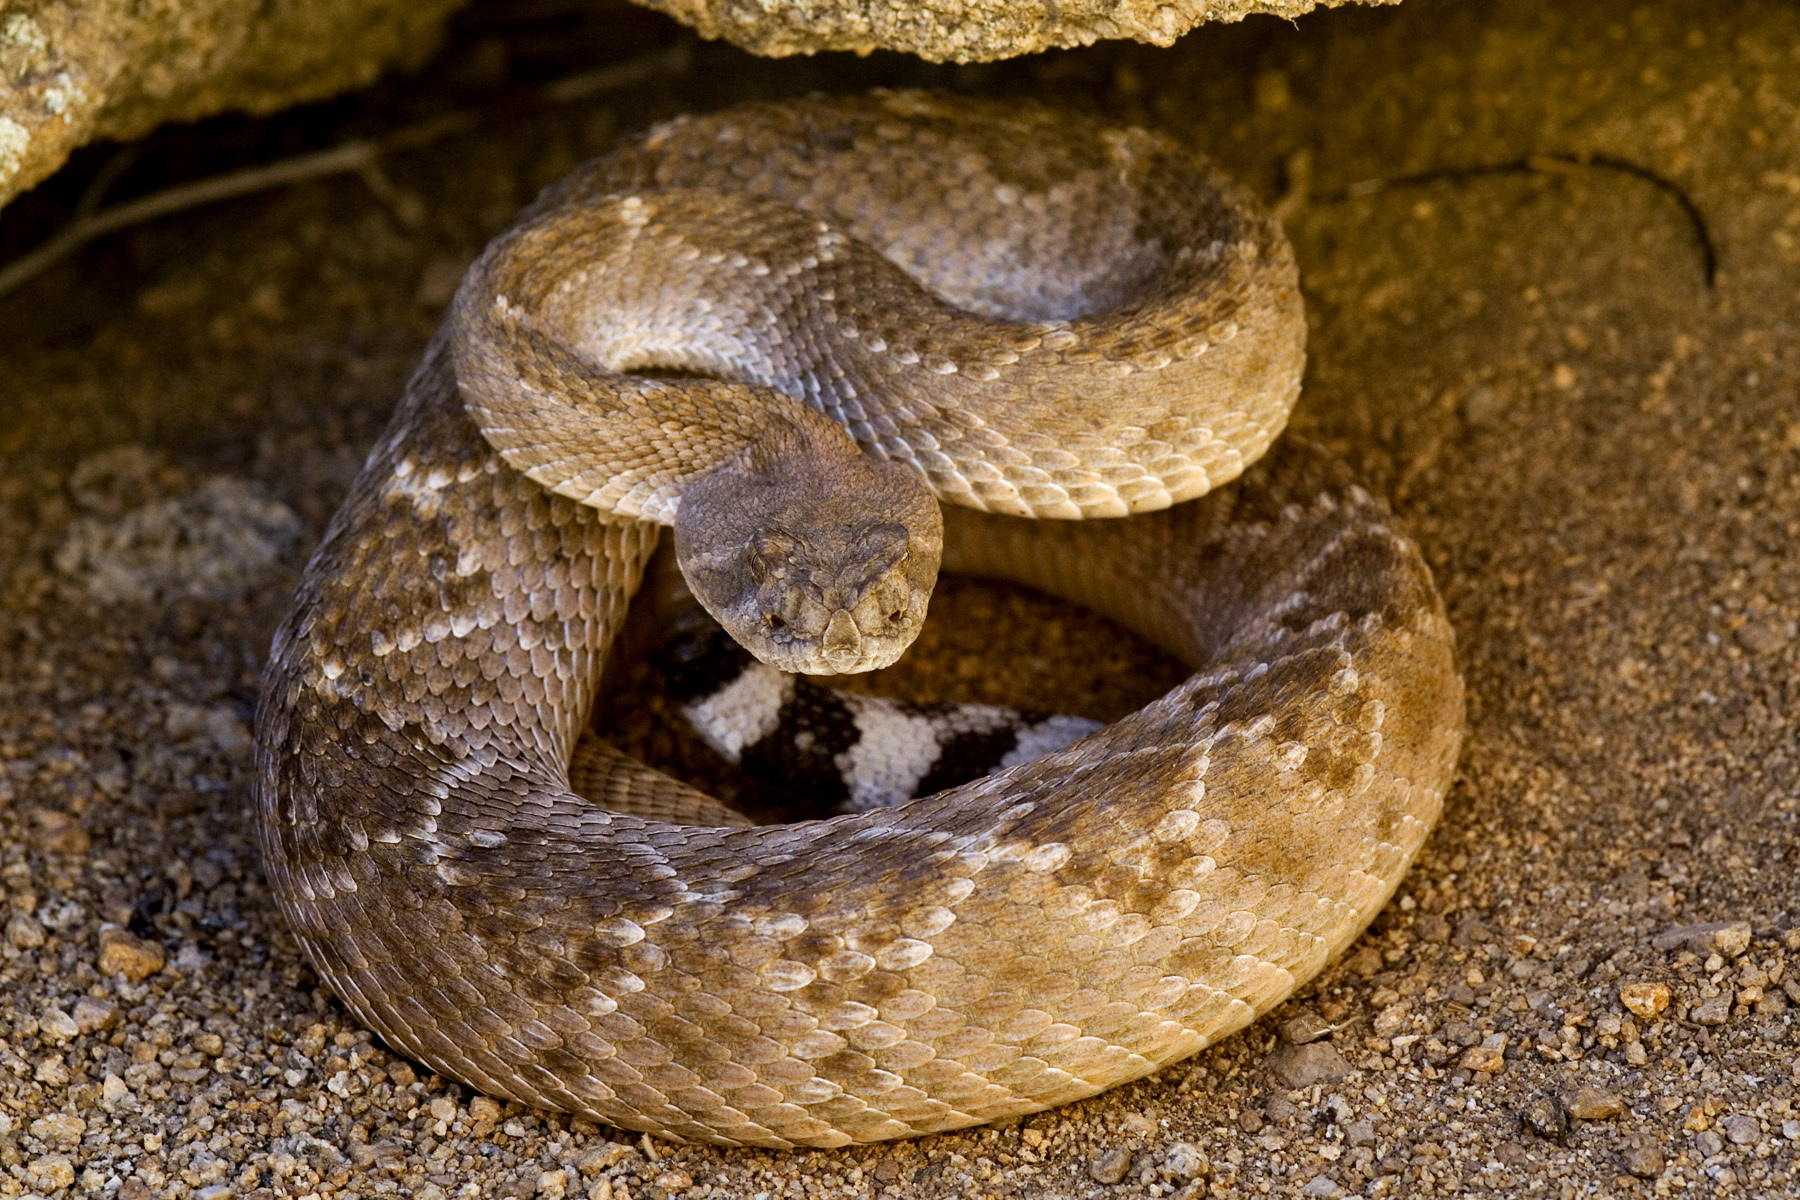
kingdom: Animalia
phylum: Chordata
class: Squamata
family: Viperidae
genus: Crotalus
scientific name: Crotalus atrox
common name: Western diamond-backed rattlesnake
